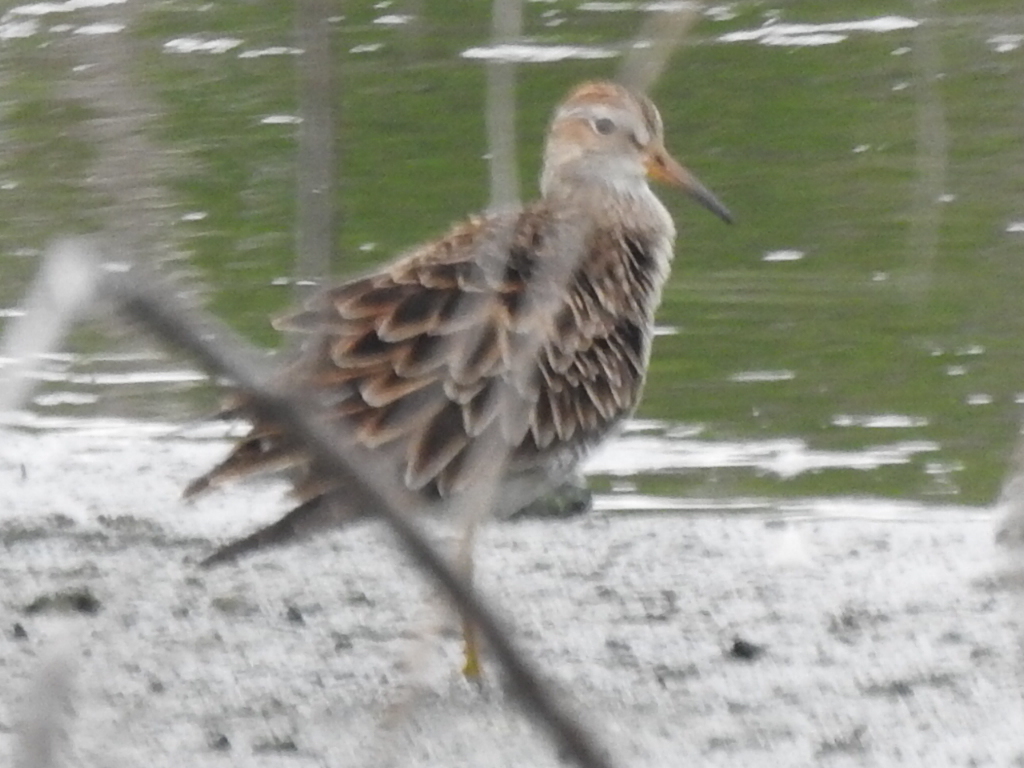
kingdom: Animalia
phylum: Chordata
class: Aves
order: Charadriiformes
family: Scolopacidae
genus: Calidris
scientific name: Calidris melanotos
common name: Pectoral sandpiper
